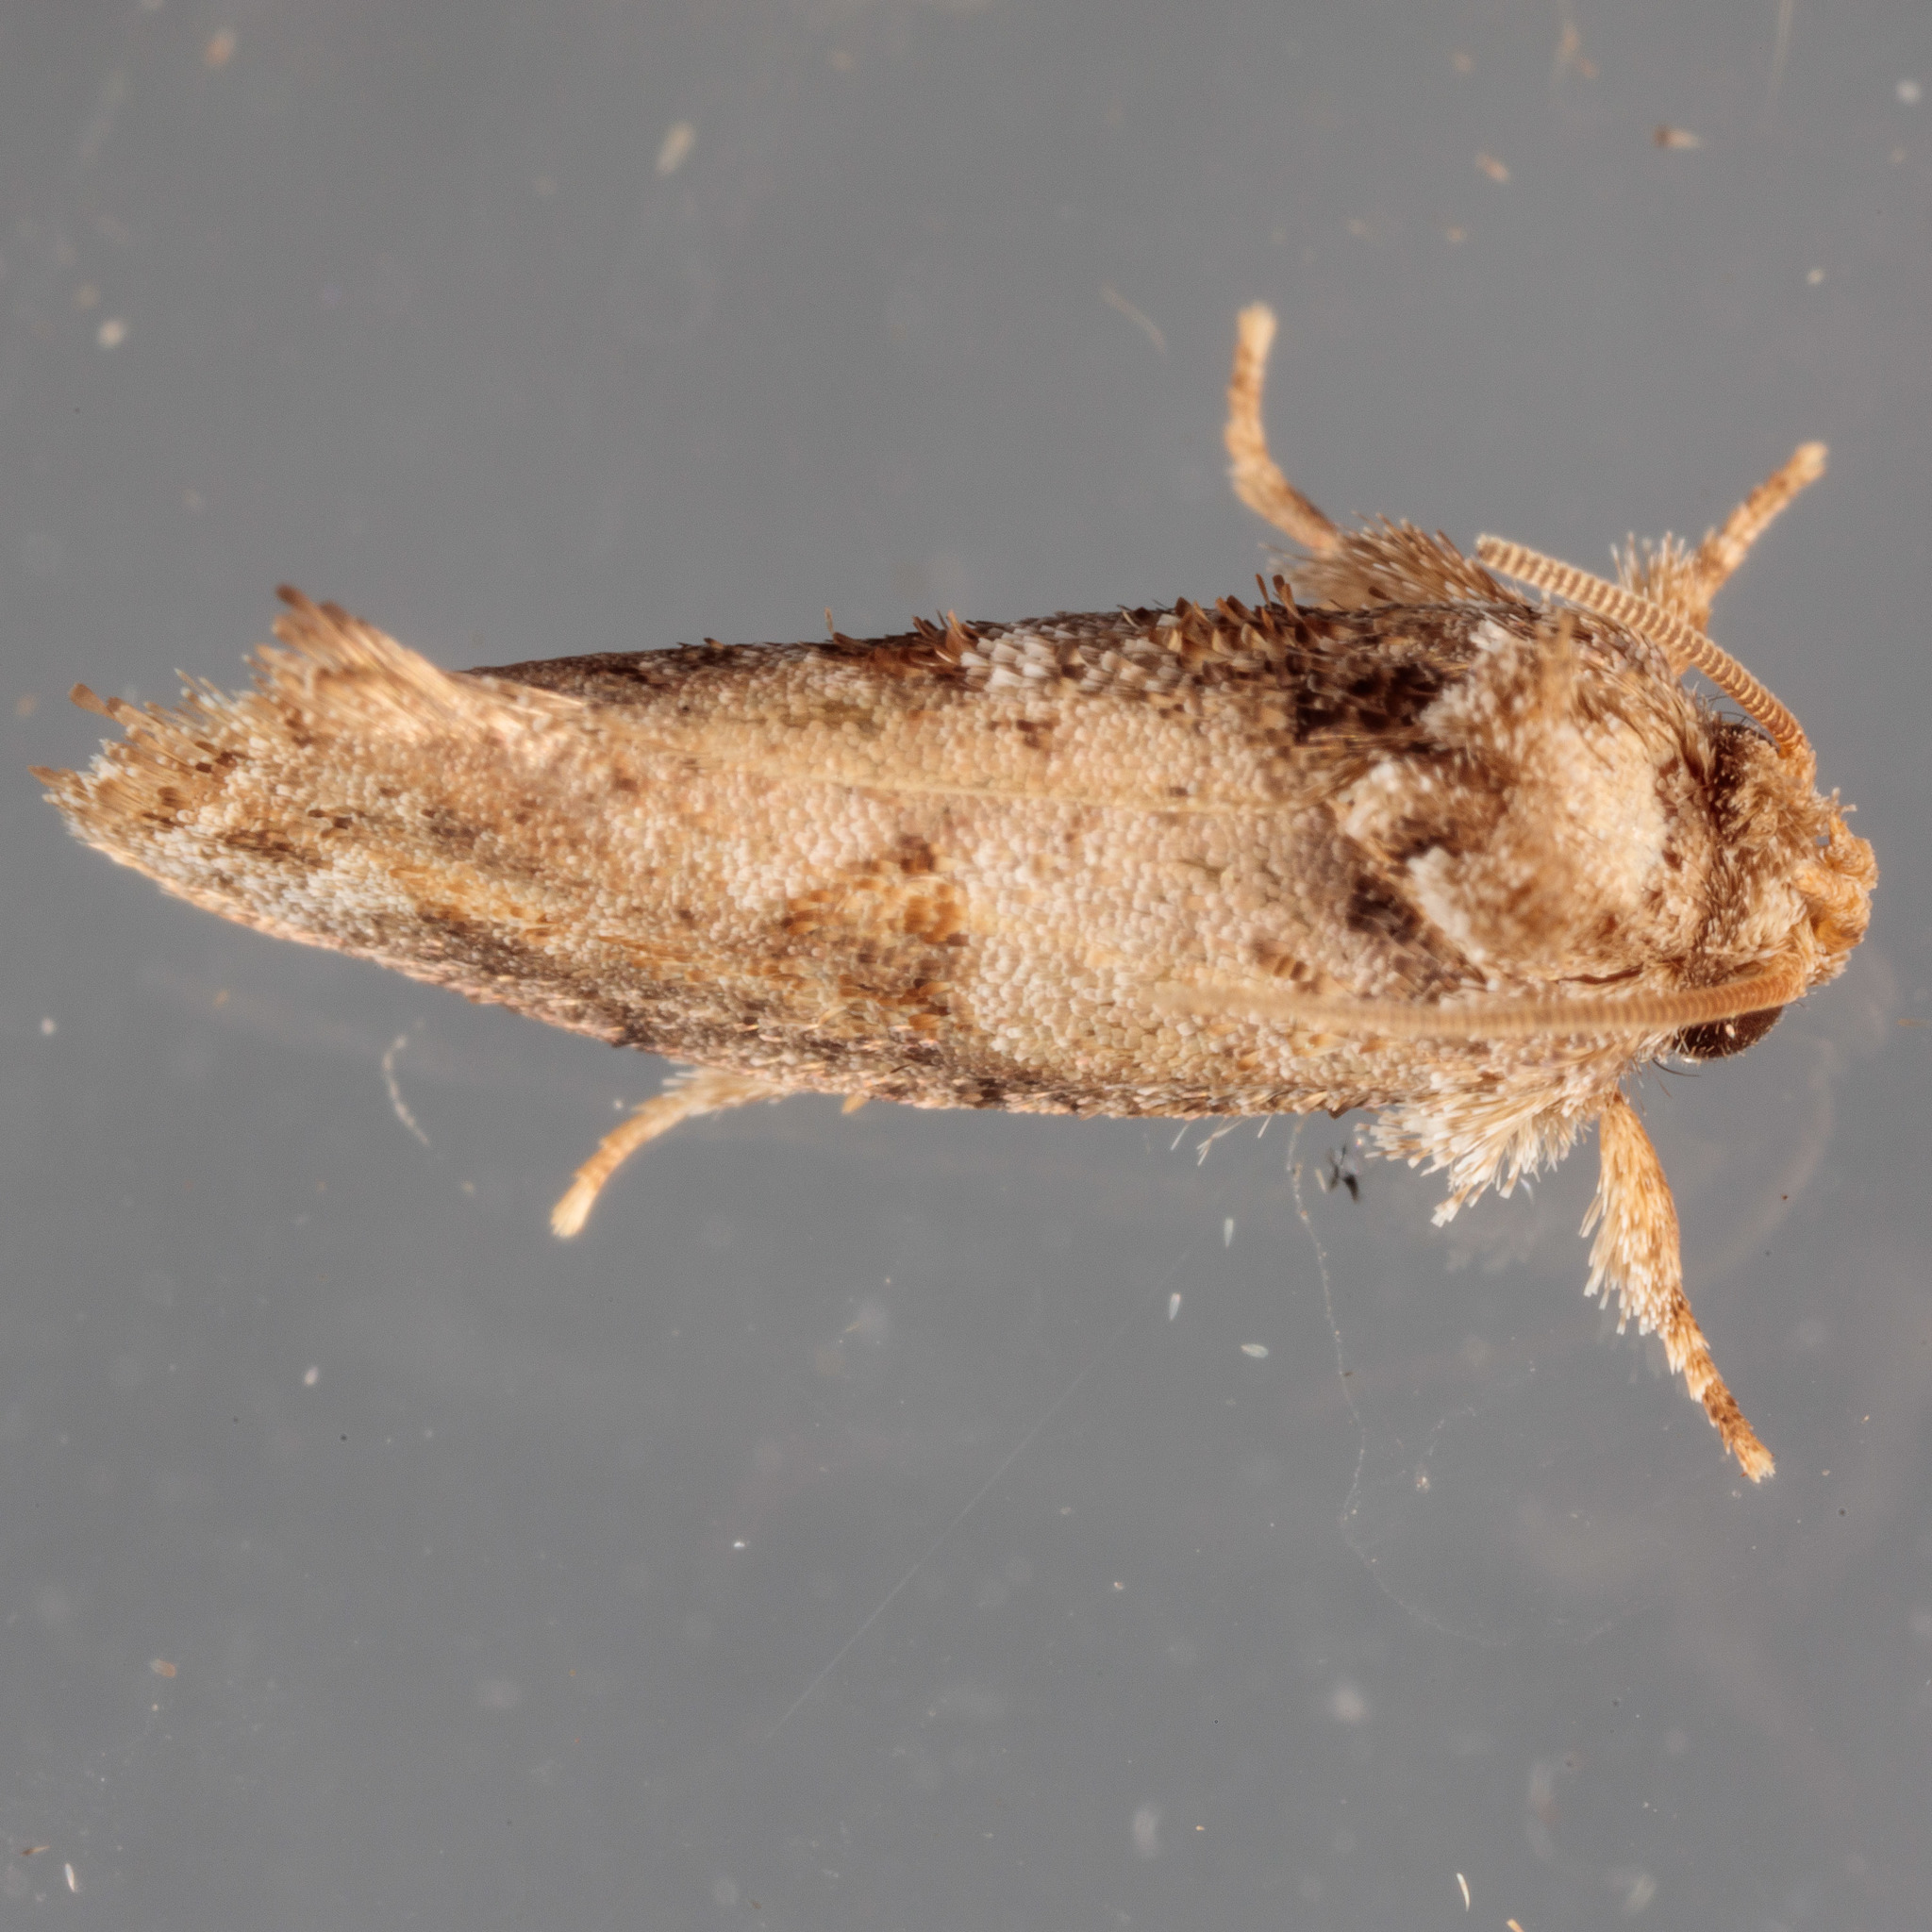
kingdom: Animalia
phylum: Arthropoda
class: Insecta
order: Lepidoptera
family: Tineidae
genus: Acrolophus
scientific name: Acrolophus piger
